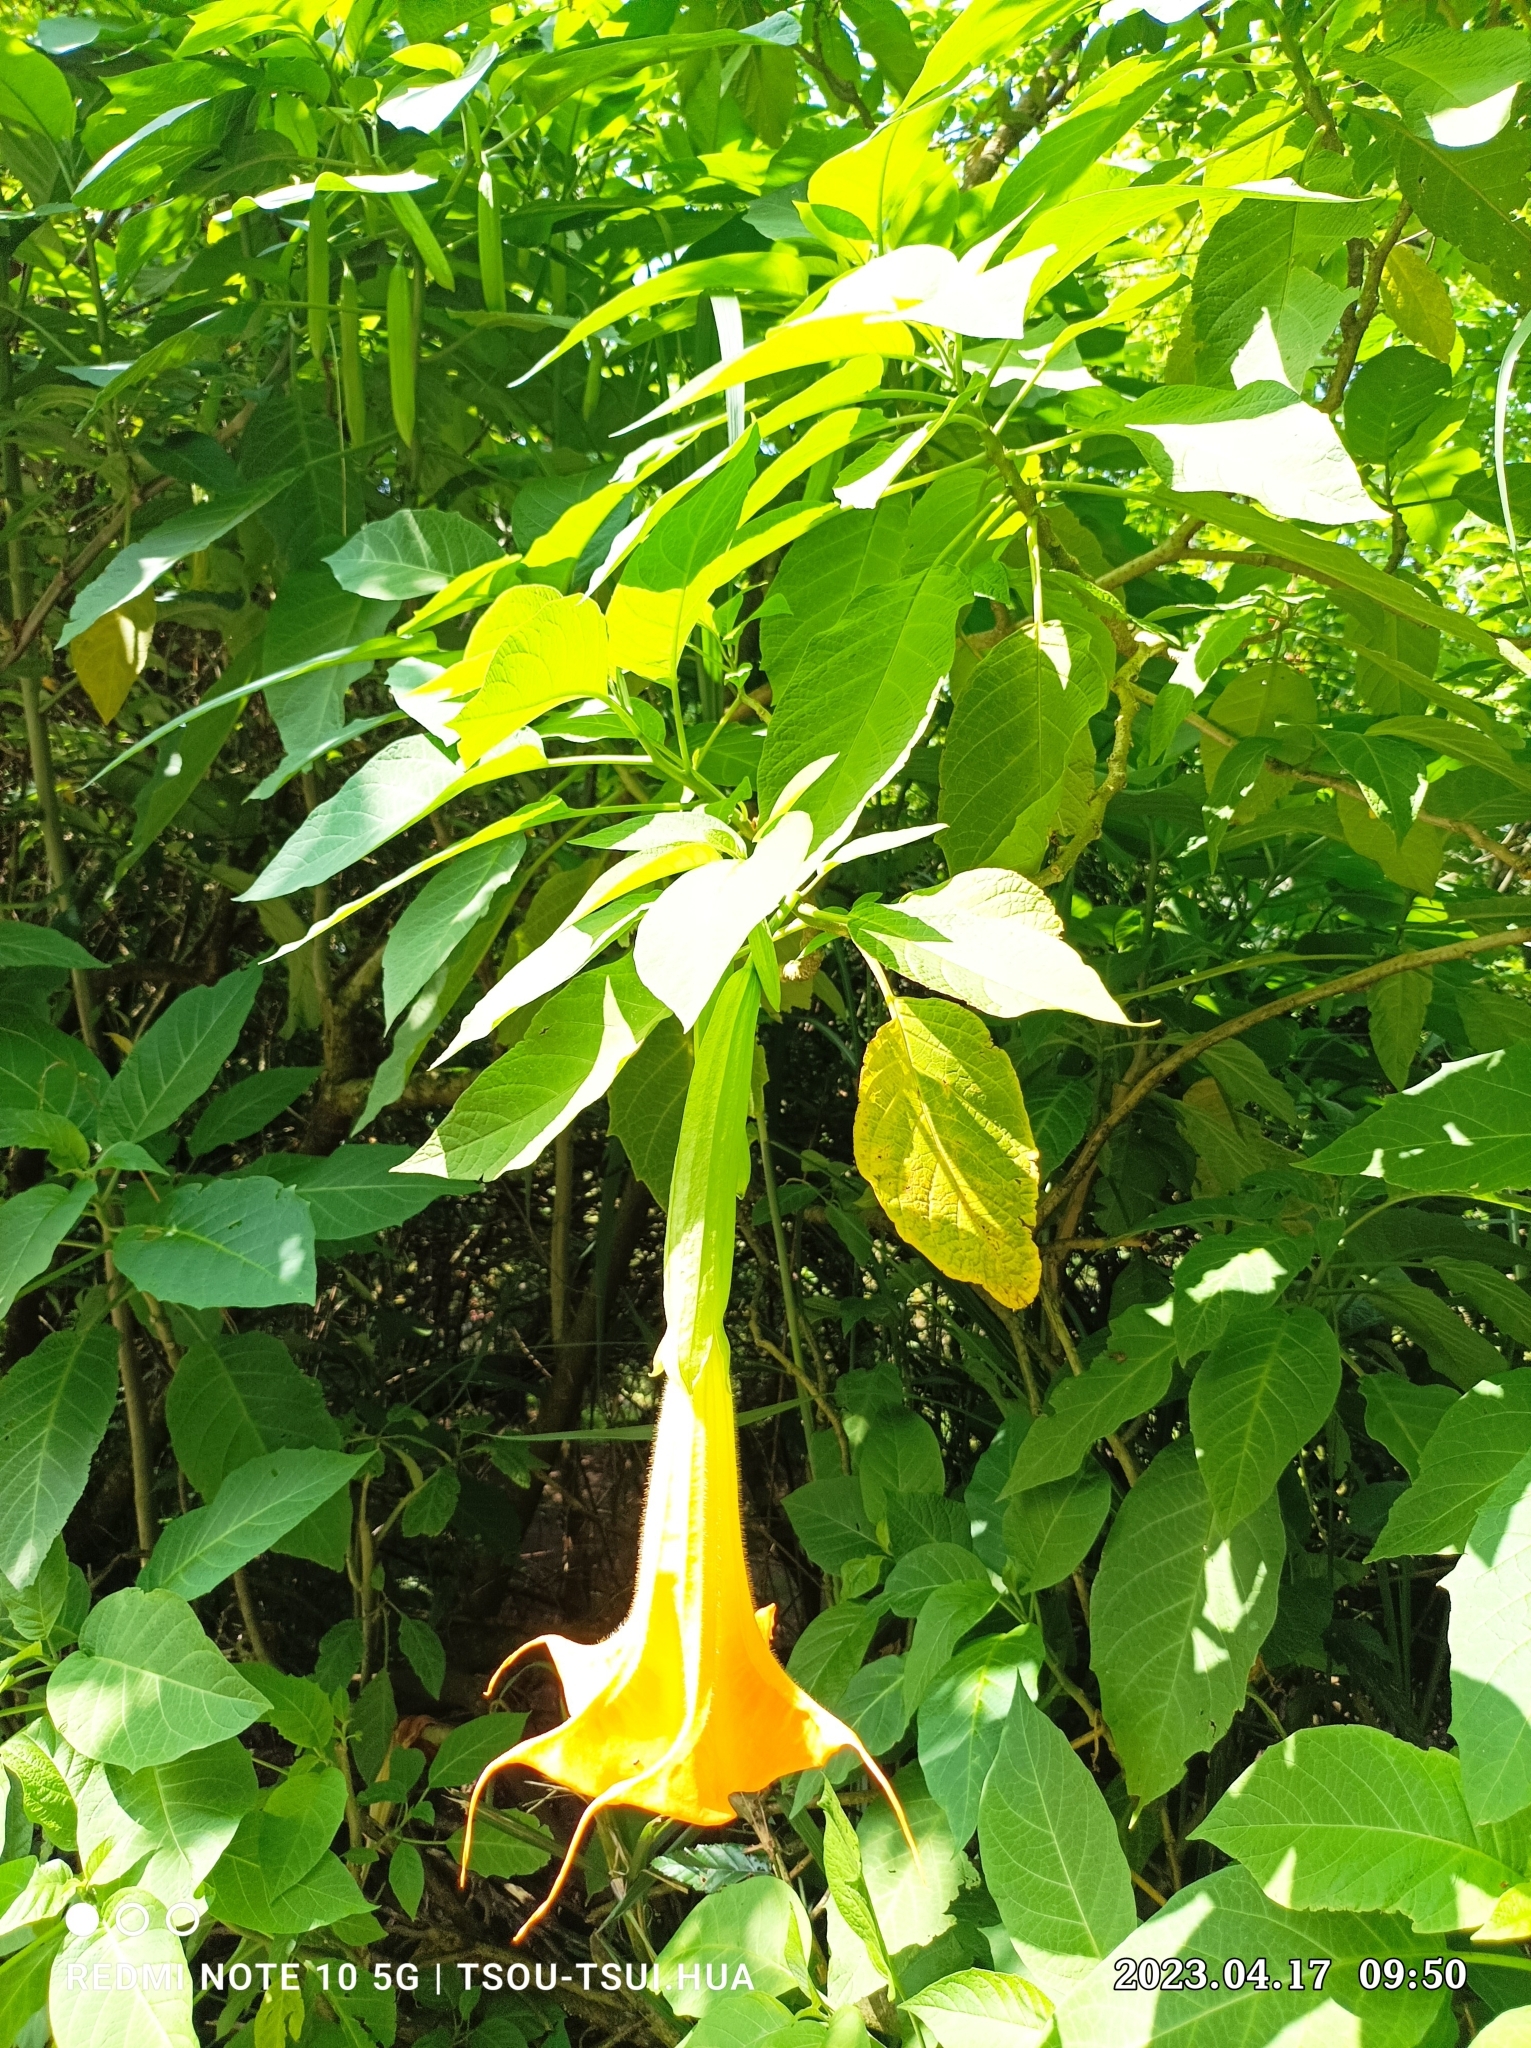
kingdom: Plantae
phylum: Tracheophyta
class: Magnoliopsida
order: Solanales
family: Solanaceae
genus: Brugmansia
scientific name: Brugmansia aurea
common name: Yellow angel's-trumpet
